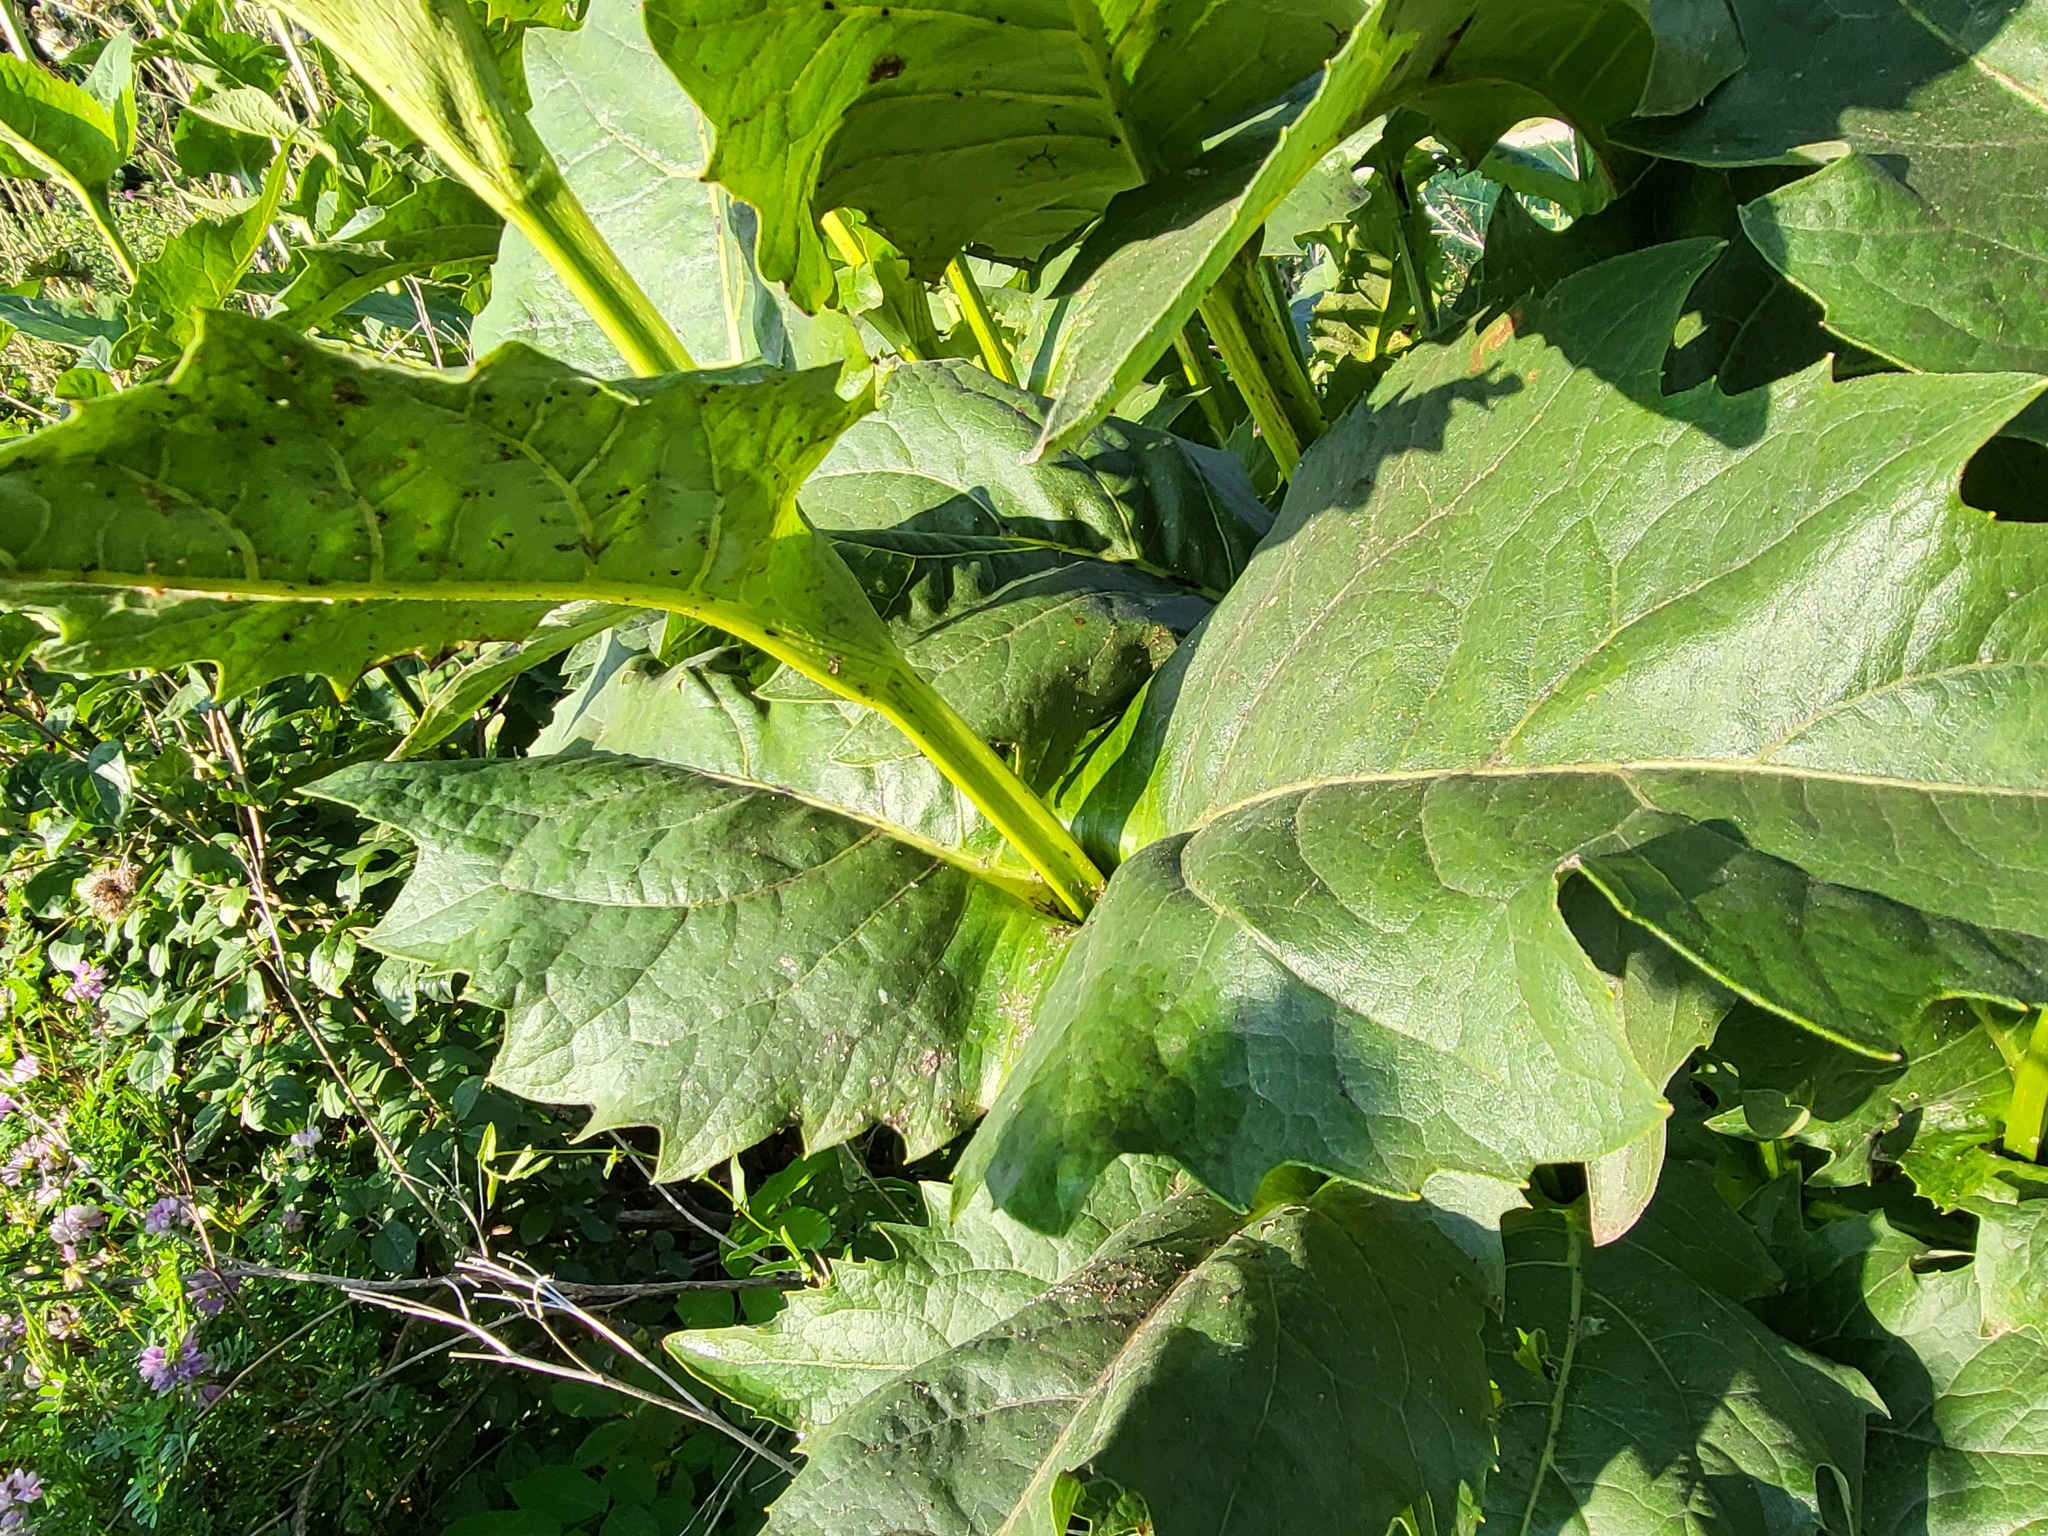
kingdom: Plantae
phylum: Tracheophyta
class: Magnoliopsida
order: Asterales
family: Asteraceae
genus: Silphium
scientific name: Silphium perfoliatum
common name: Cup-plant
